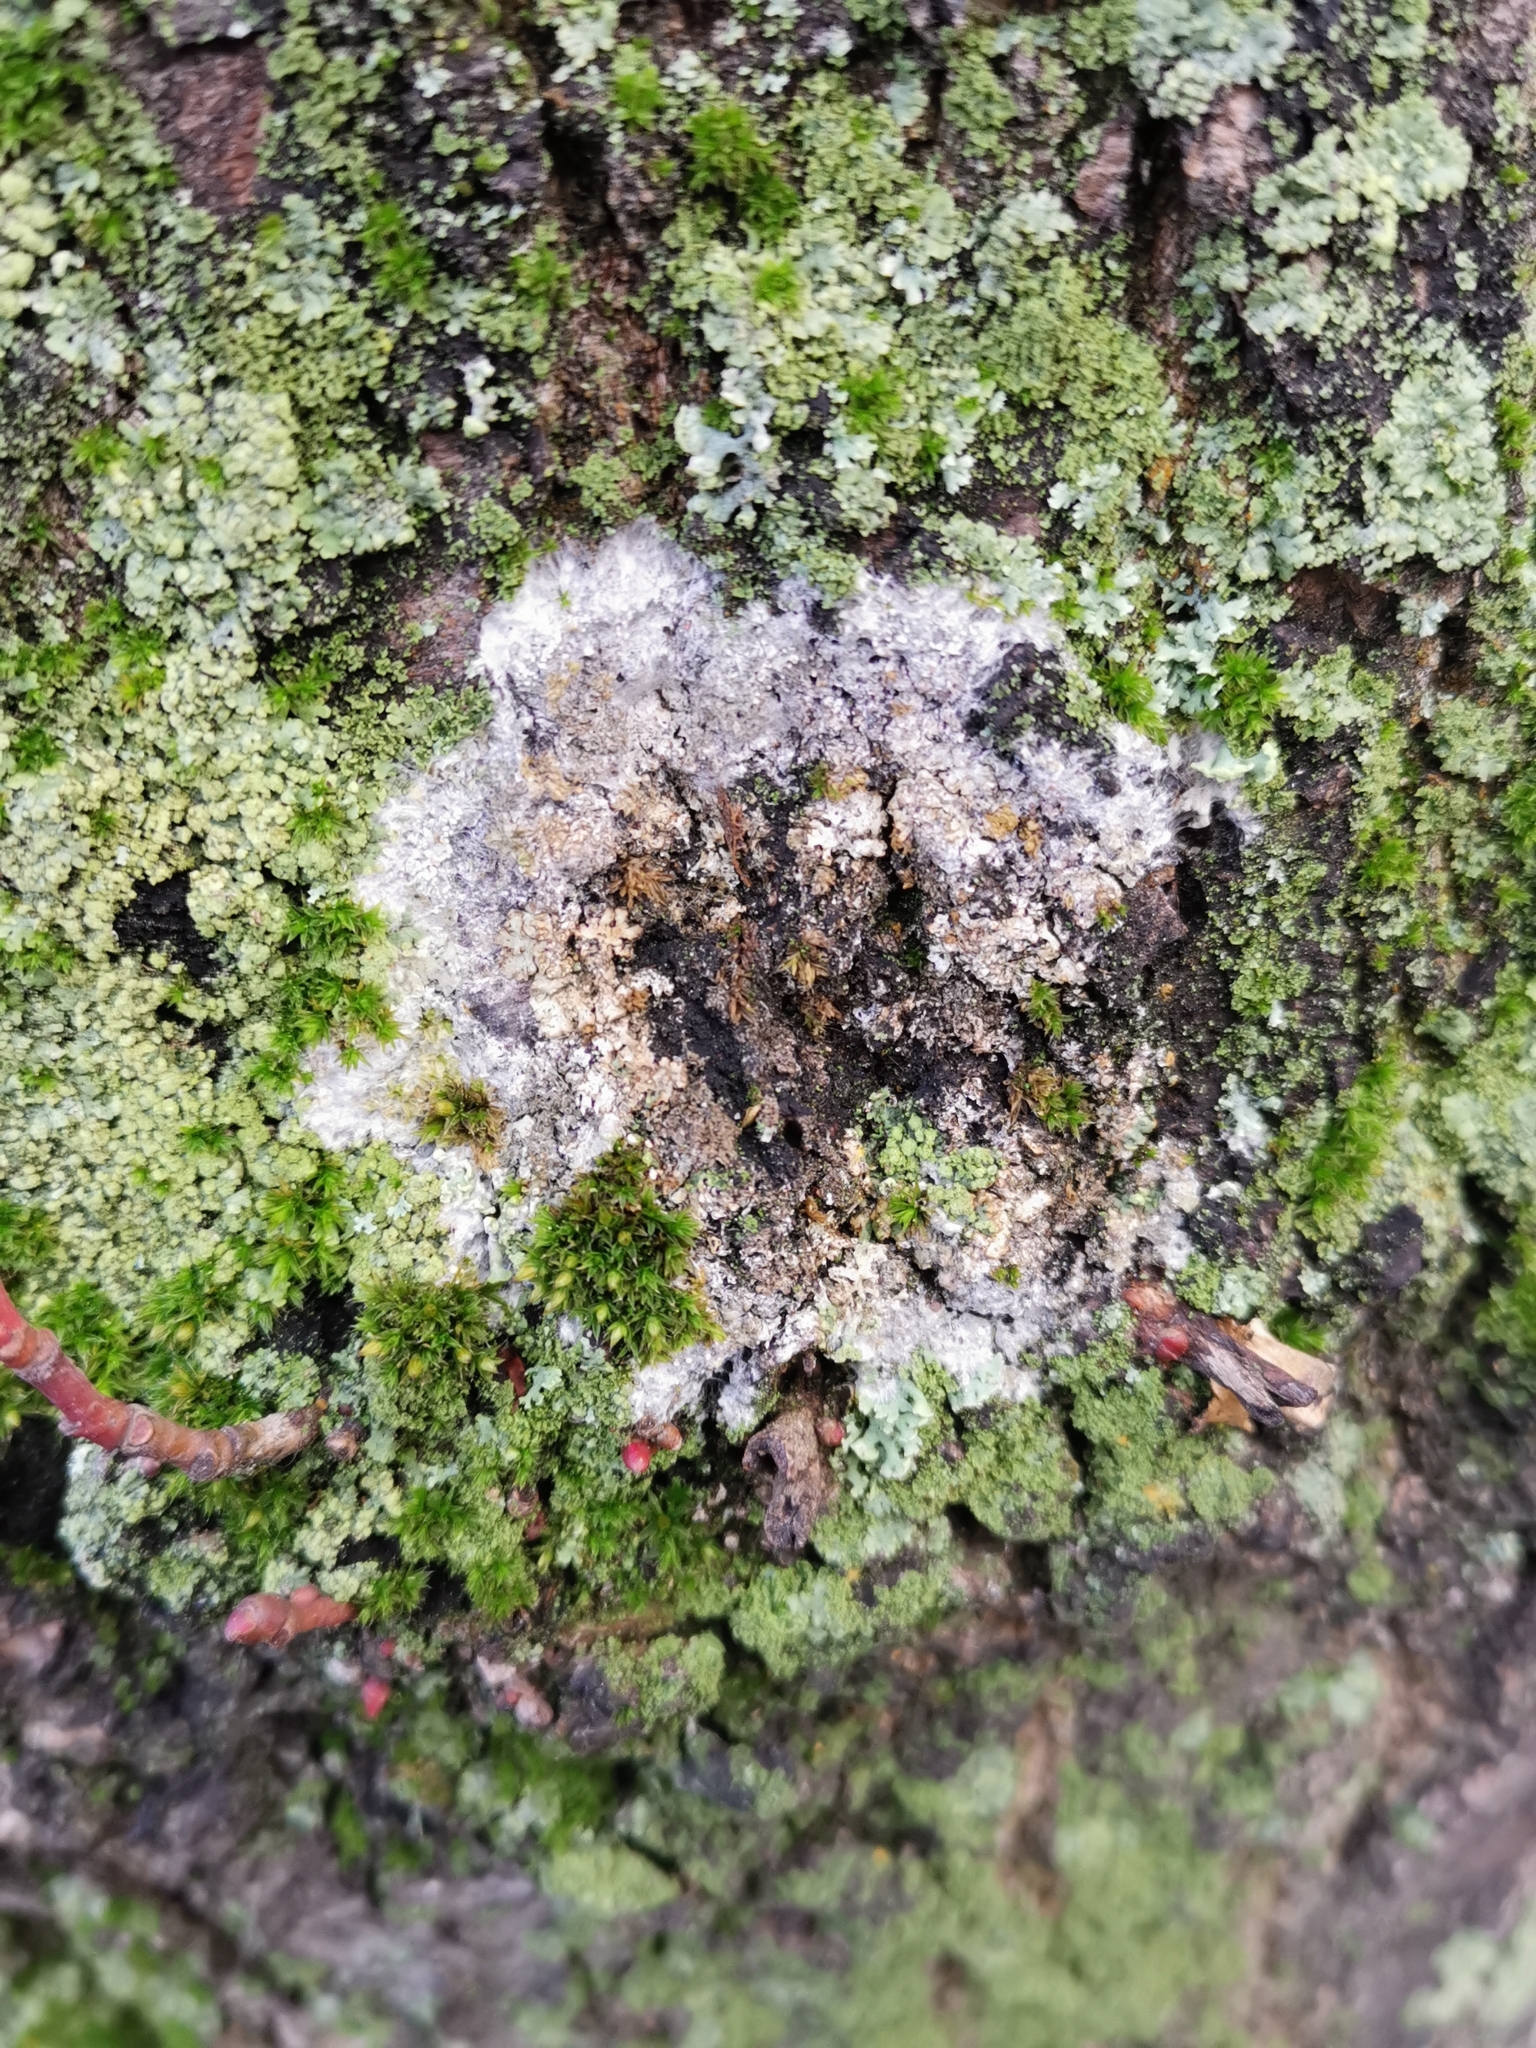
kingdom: Fungi
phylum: Basidiomycota
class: Agaricomycetes
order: Atheliales
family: Atheliaceae
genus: Athelia
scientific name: Athelia arachnoidea
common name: Candelabra duster
